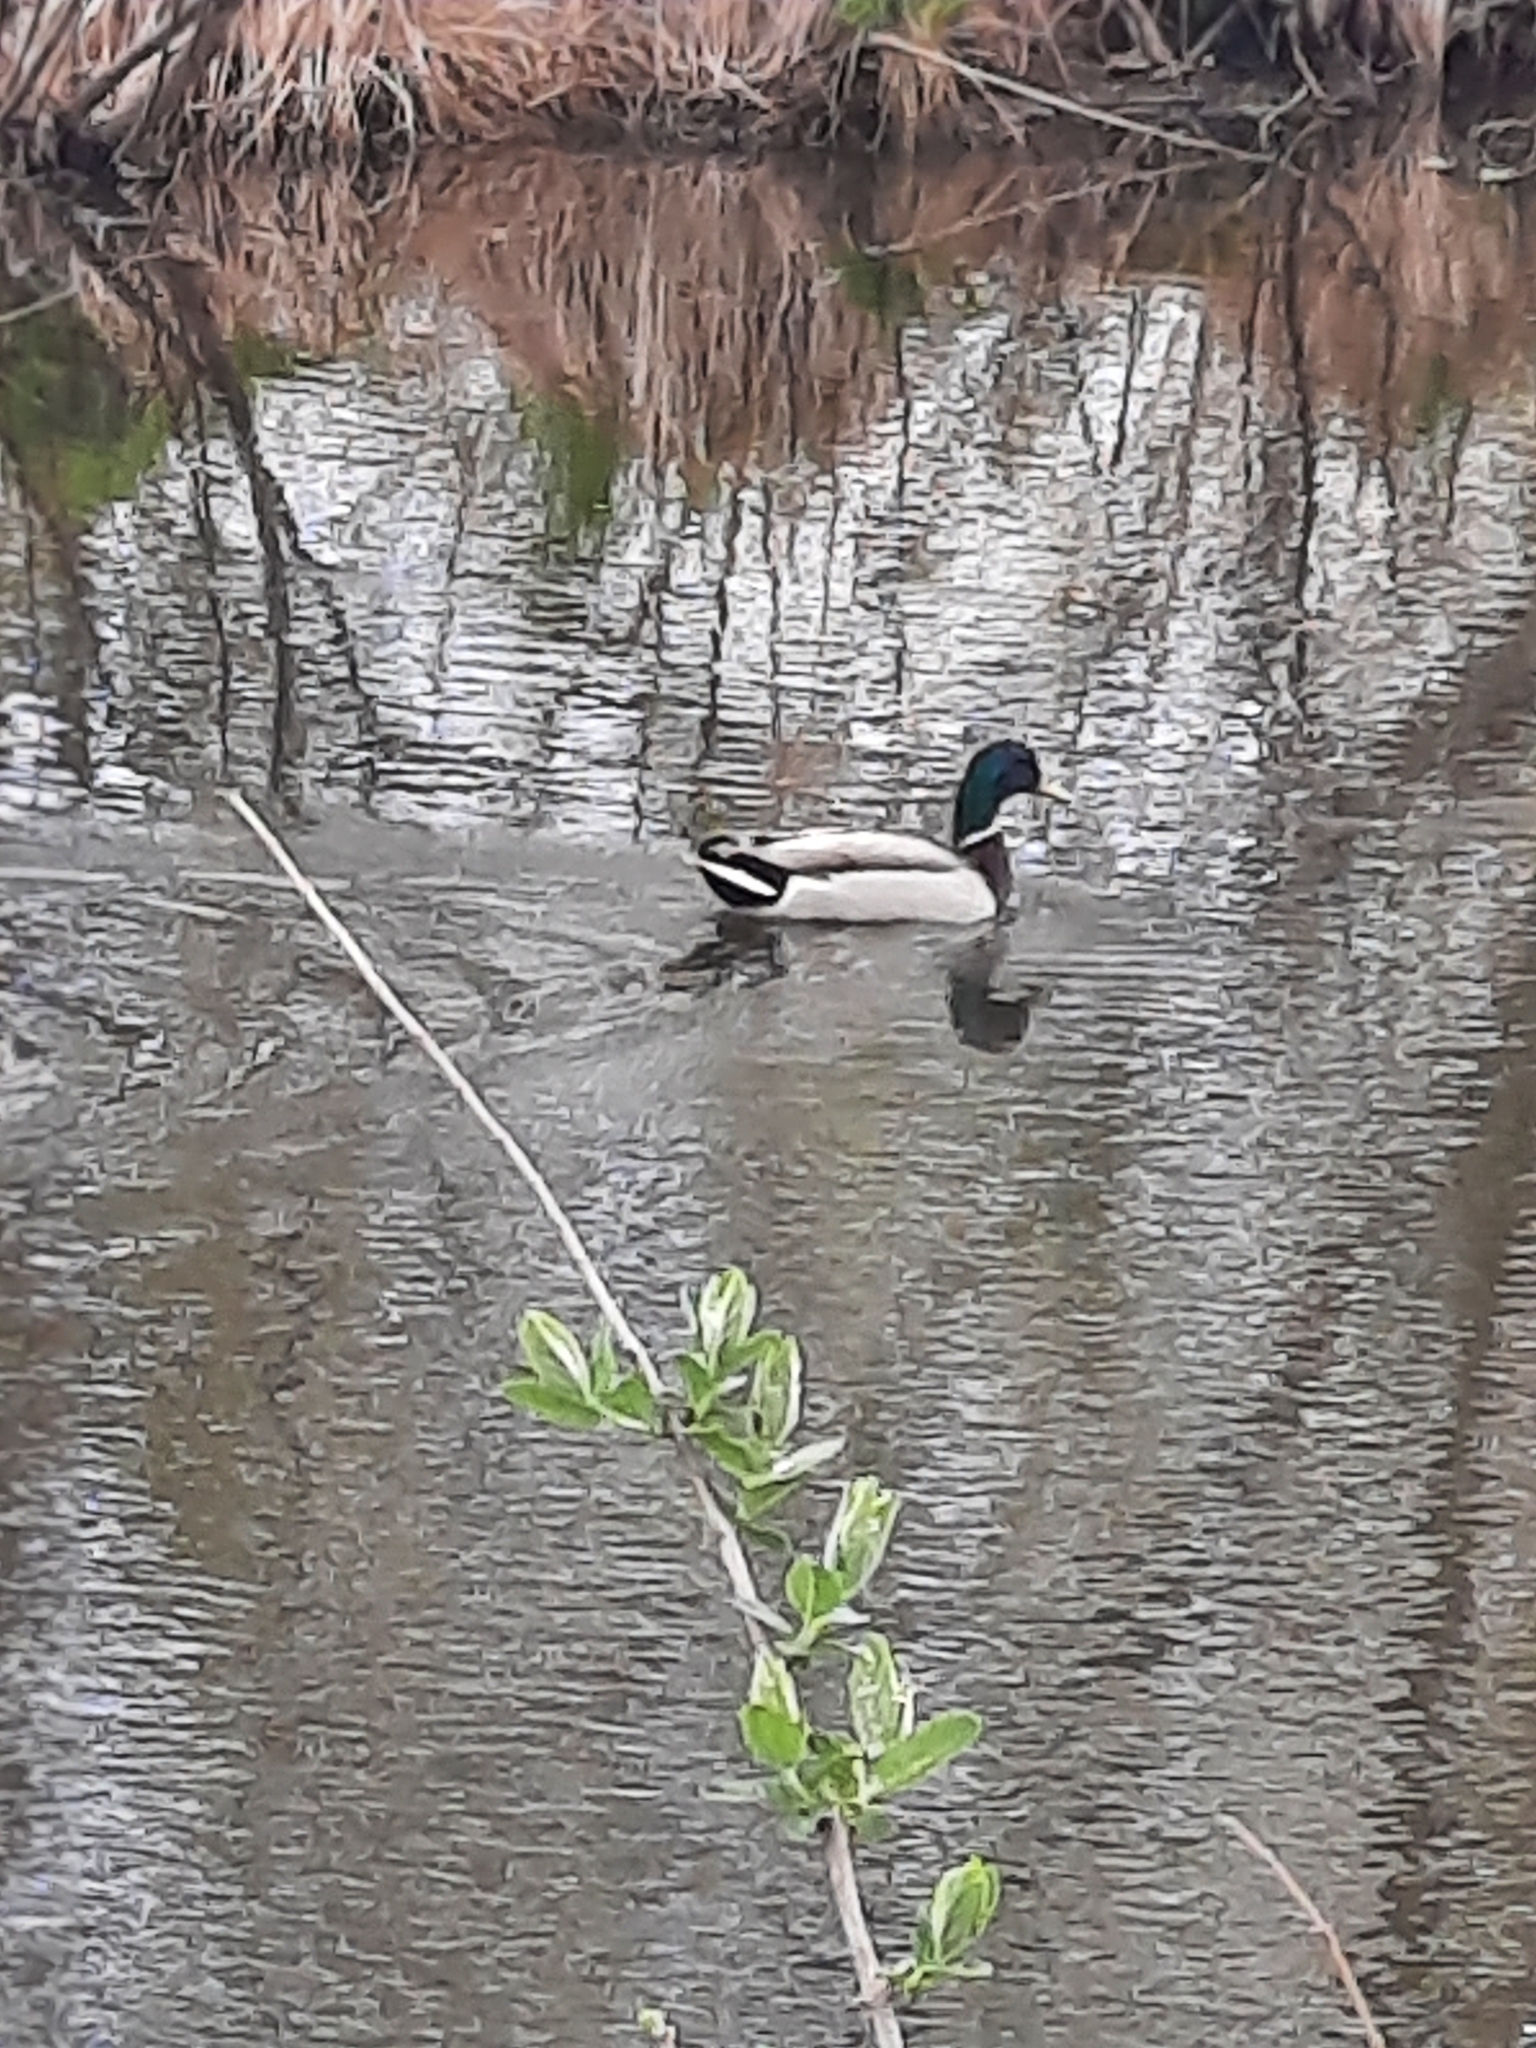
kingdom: Animalia
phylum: Chordata
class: Aves
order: Anseriformes
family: Anatidae
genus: Anas
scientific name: Anas platyrhynchos
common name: Mallard
